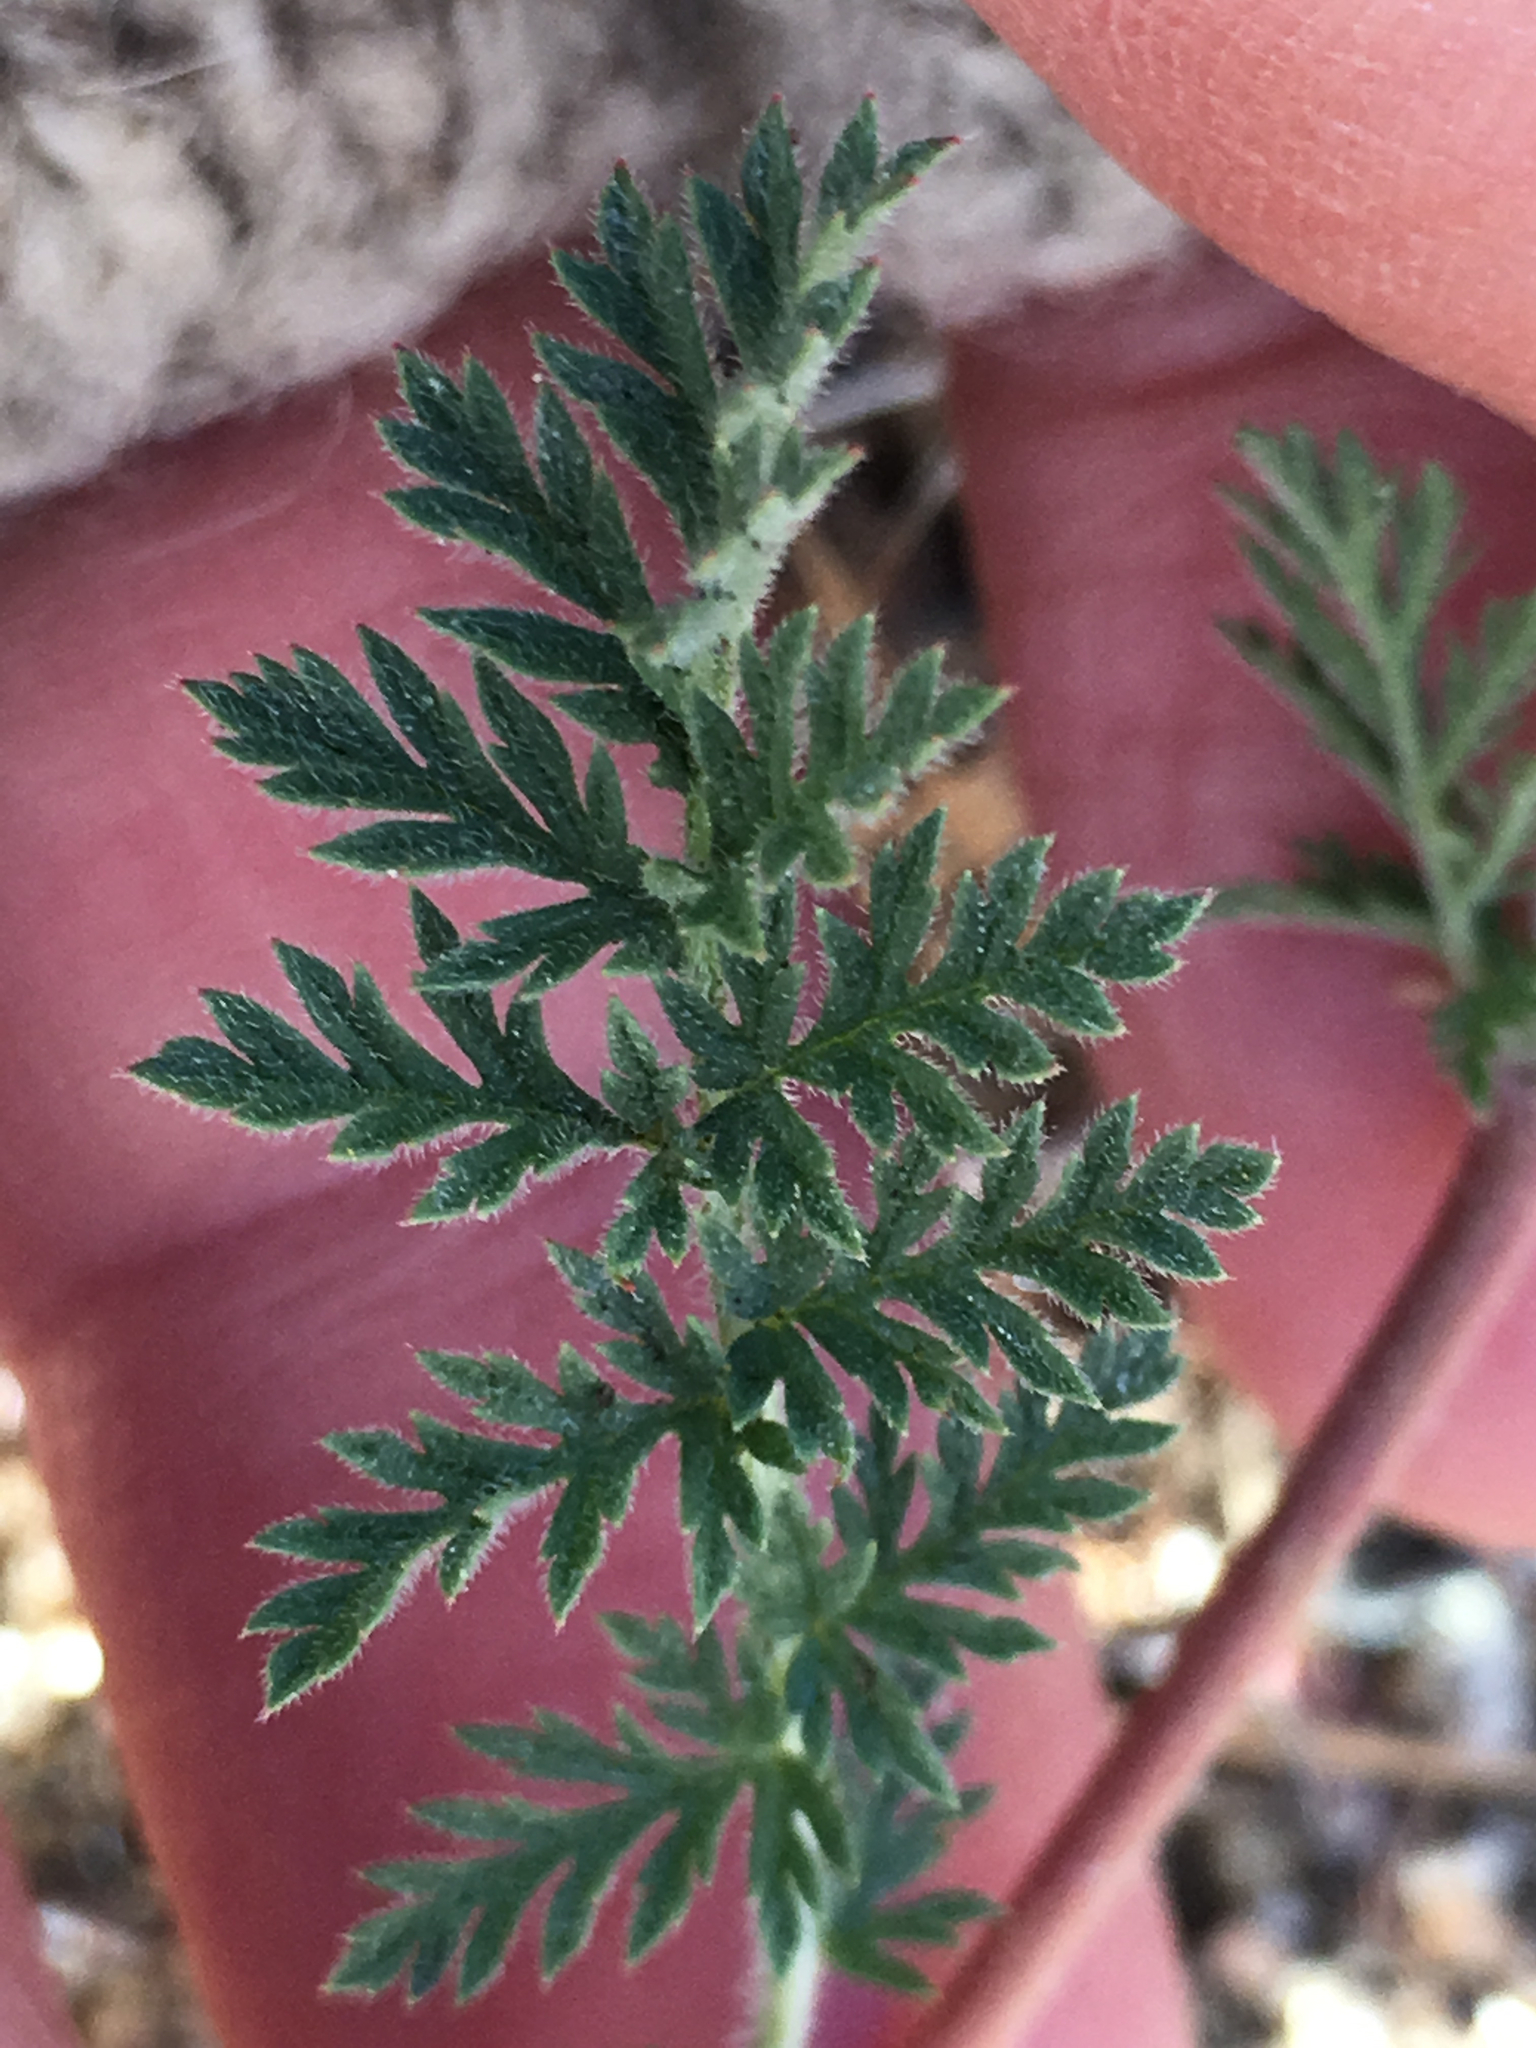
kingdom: Plantae
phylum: Tracheophyta
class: Magnoliopsida
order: Geraniales
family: Geraniaceae
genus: Erodium
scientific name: Erodium cicutarium
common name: Common stork's-bill
